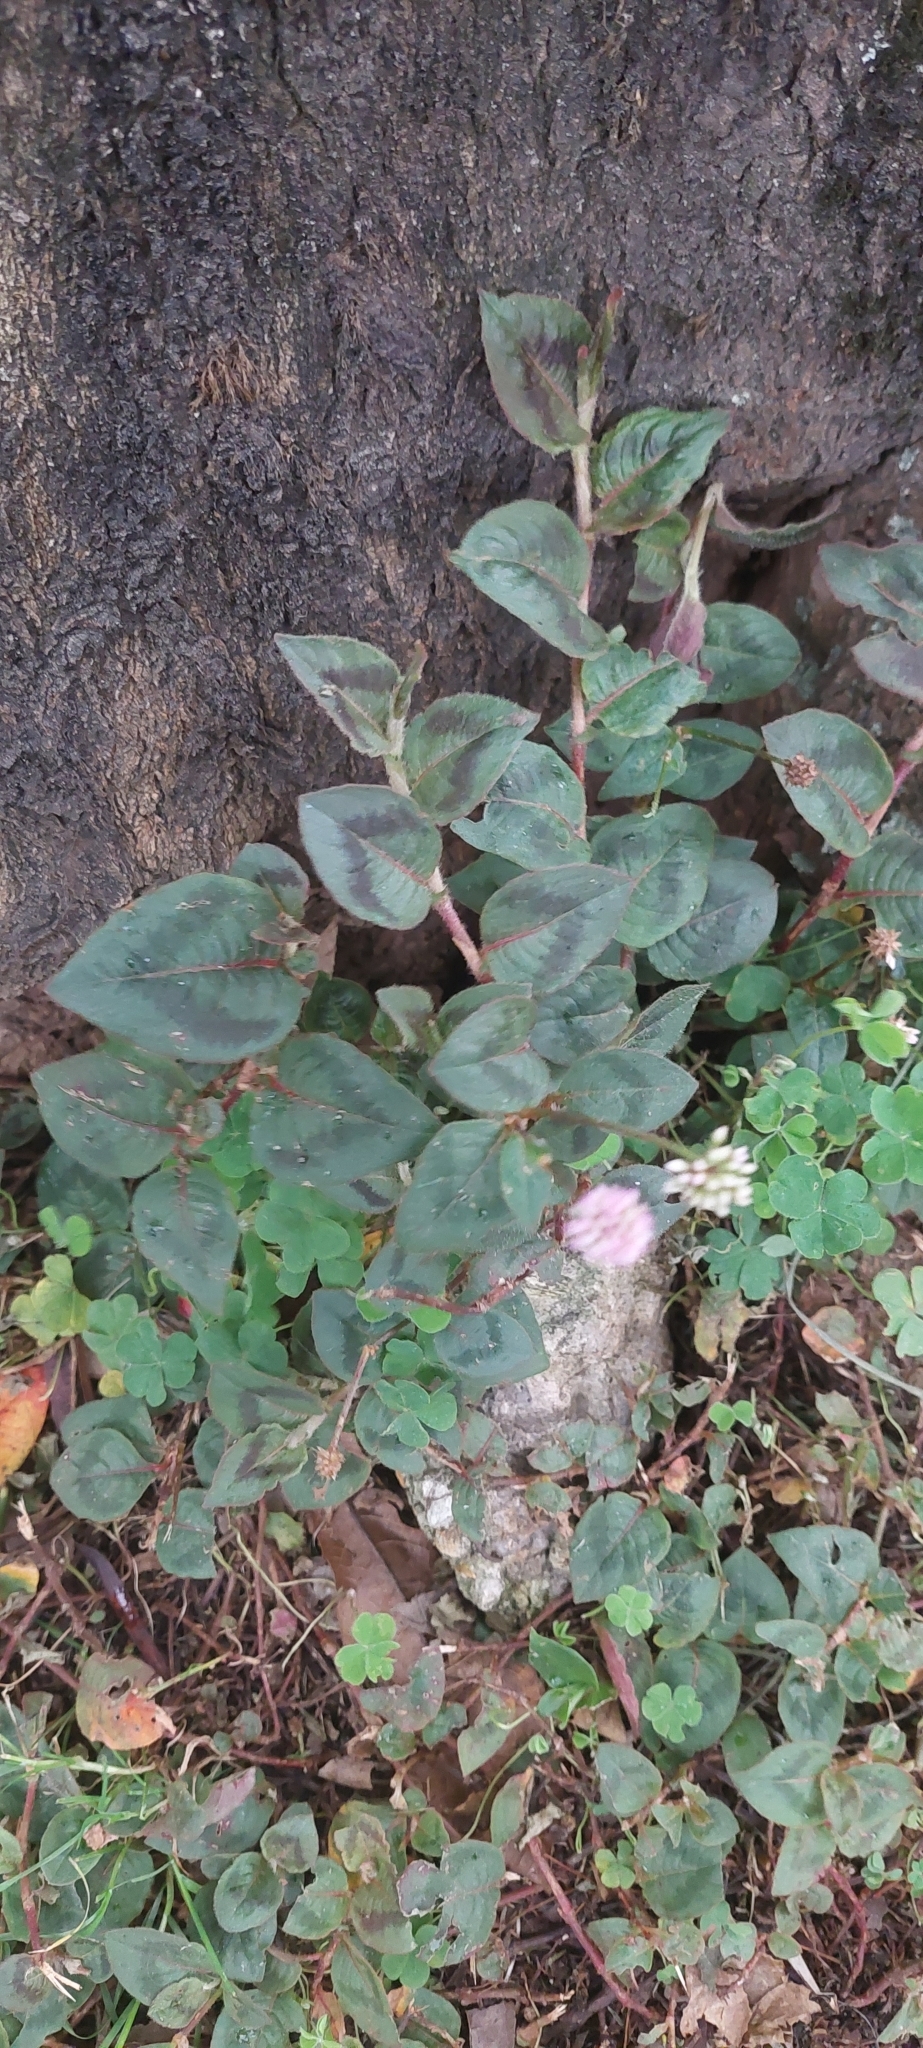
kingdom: Plantae
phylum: Tracheophyta
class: Magnoliopsida
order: Caryophyllales
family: Polygonaceae
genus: Persicaria
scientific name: Persicaria capitata
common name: Pinkhead smartweed
